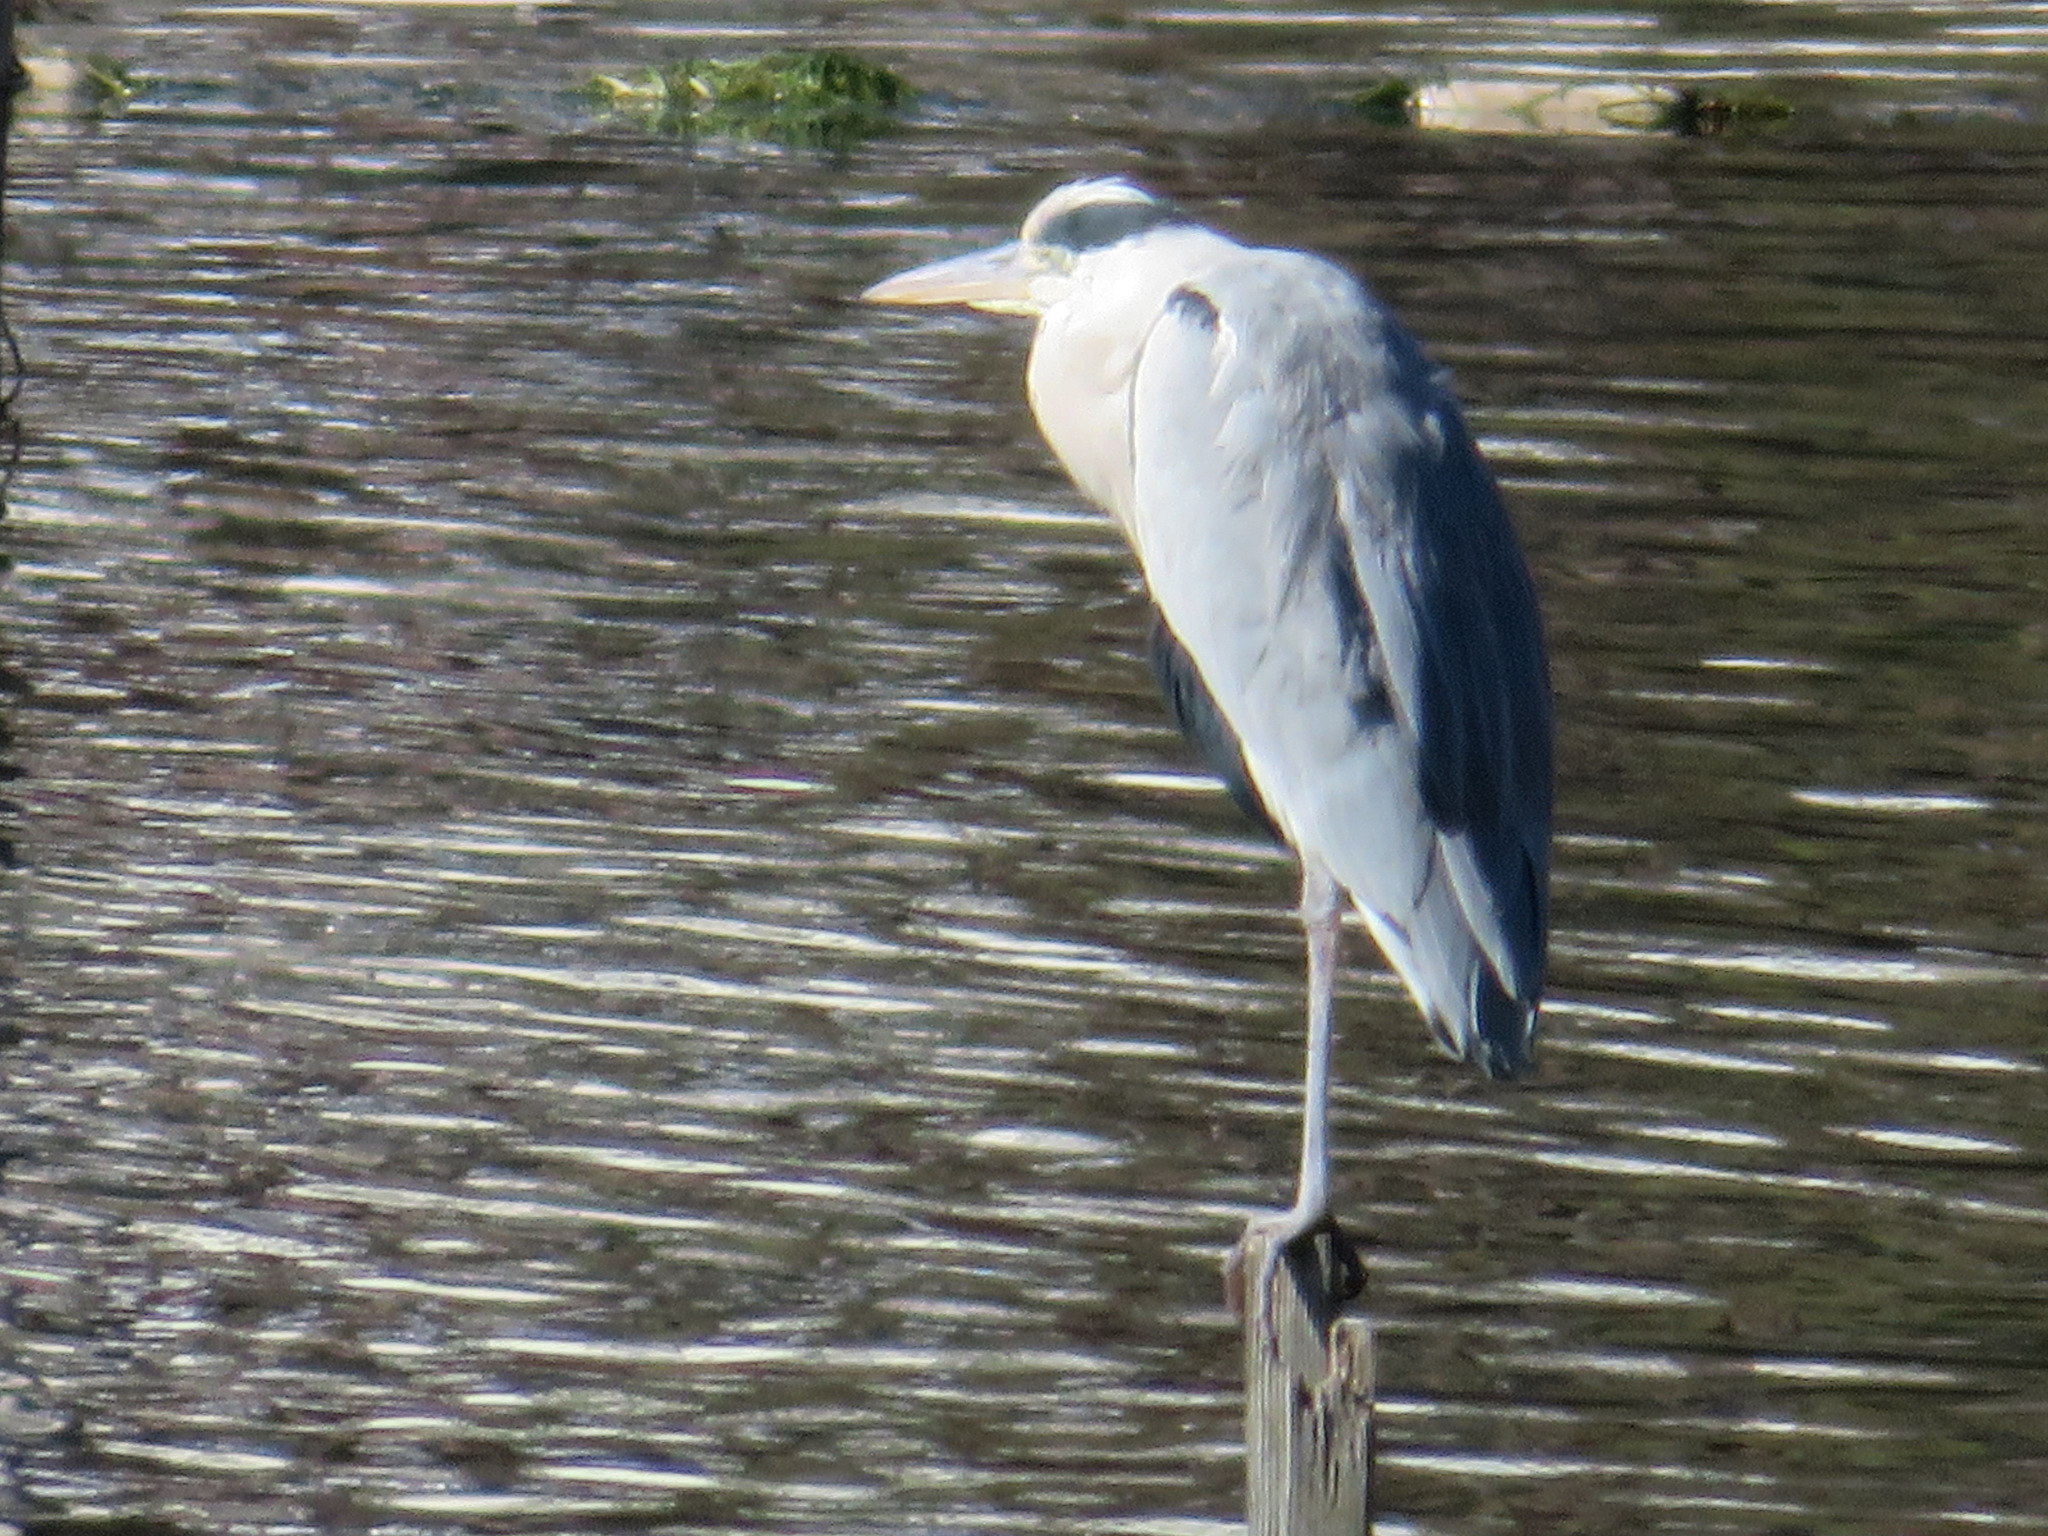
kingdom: Animalia
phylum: Chordata
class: Aves
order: Pelecaniformes
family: Ardeidae
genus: Ardea
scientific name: Ardea cinerea
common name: Grey heron
